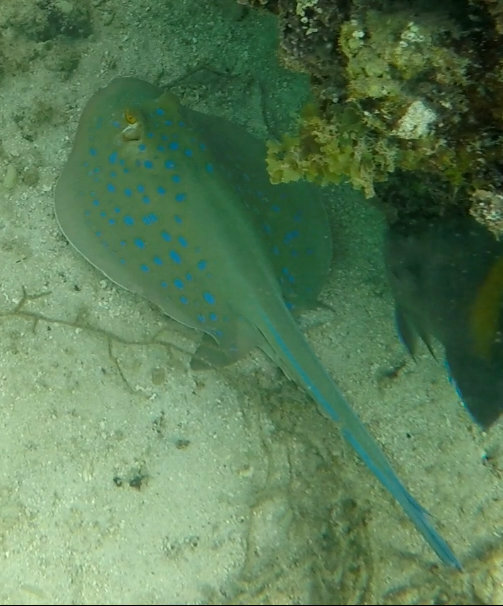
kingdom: Animalia
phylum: Chordata
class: Elasmobranchii
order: Myliobatiformes
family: Dasyatidae
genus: Taeniura
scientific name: Taeniura lymma
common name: Bluespotted ribbontail ray
